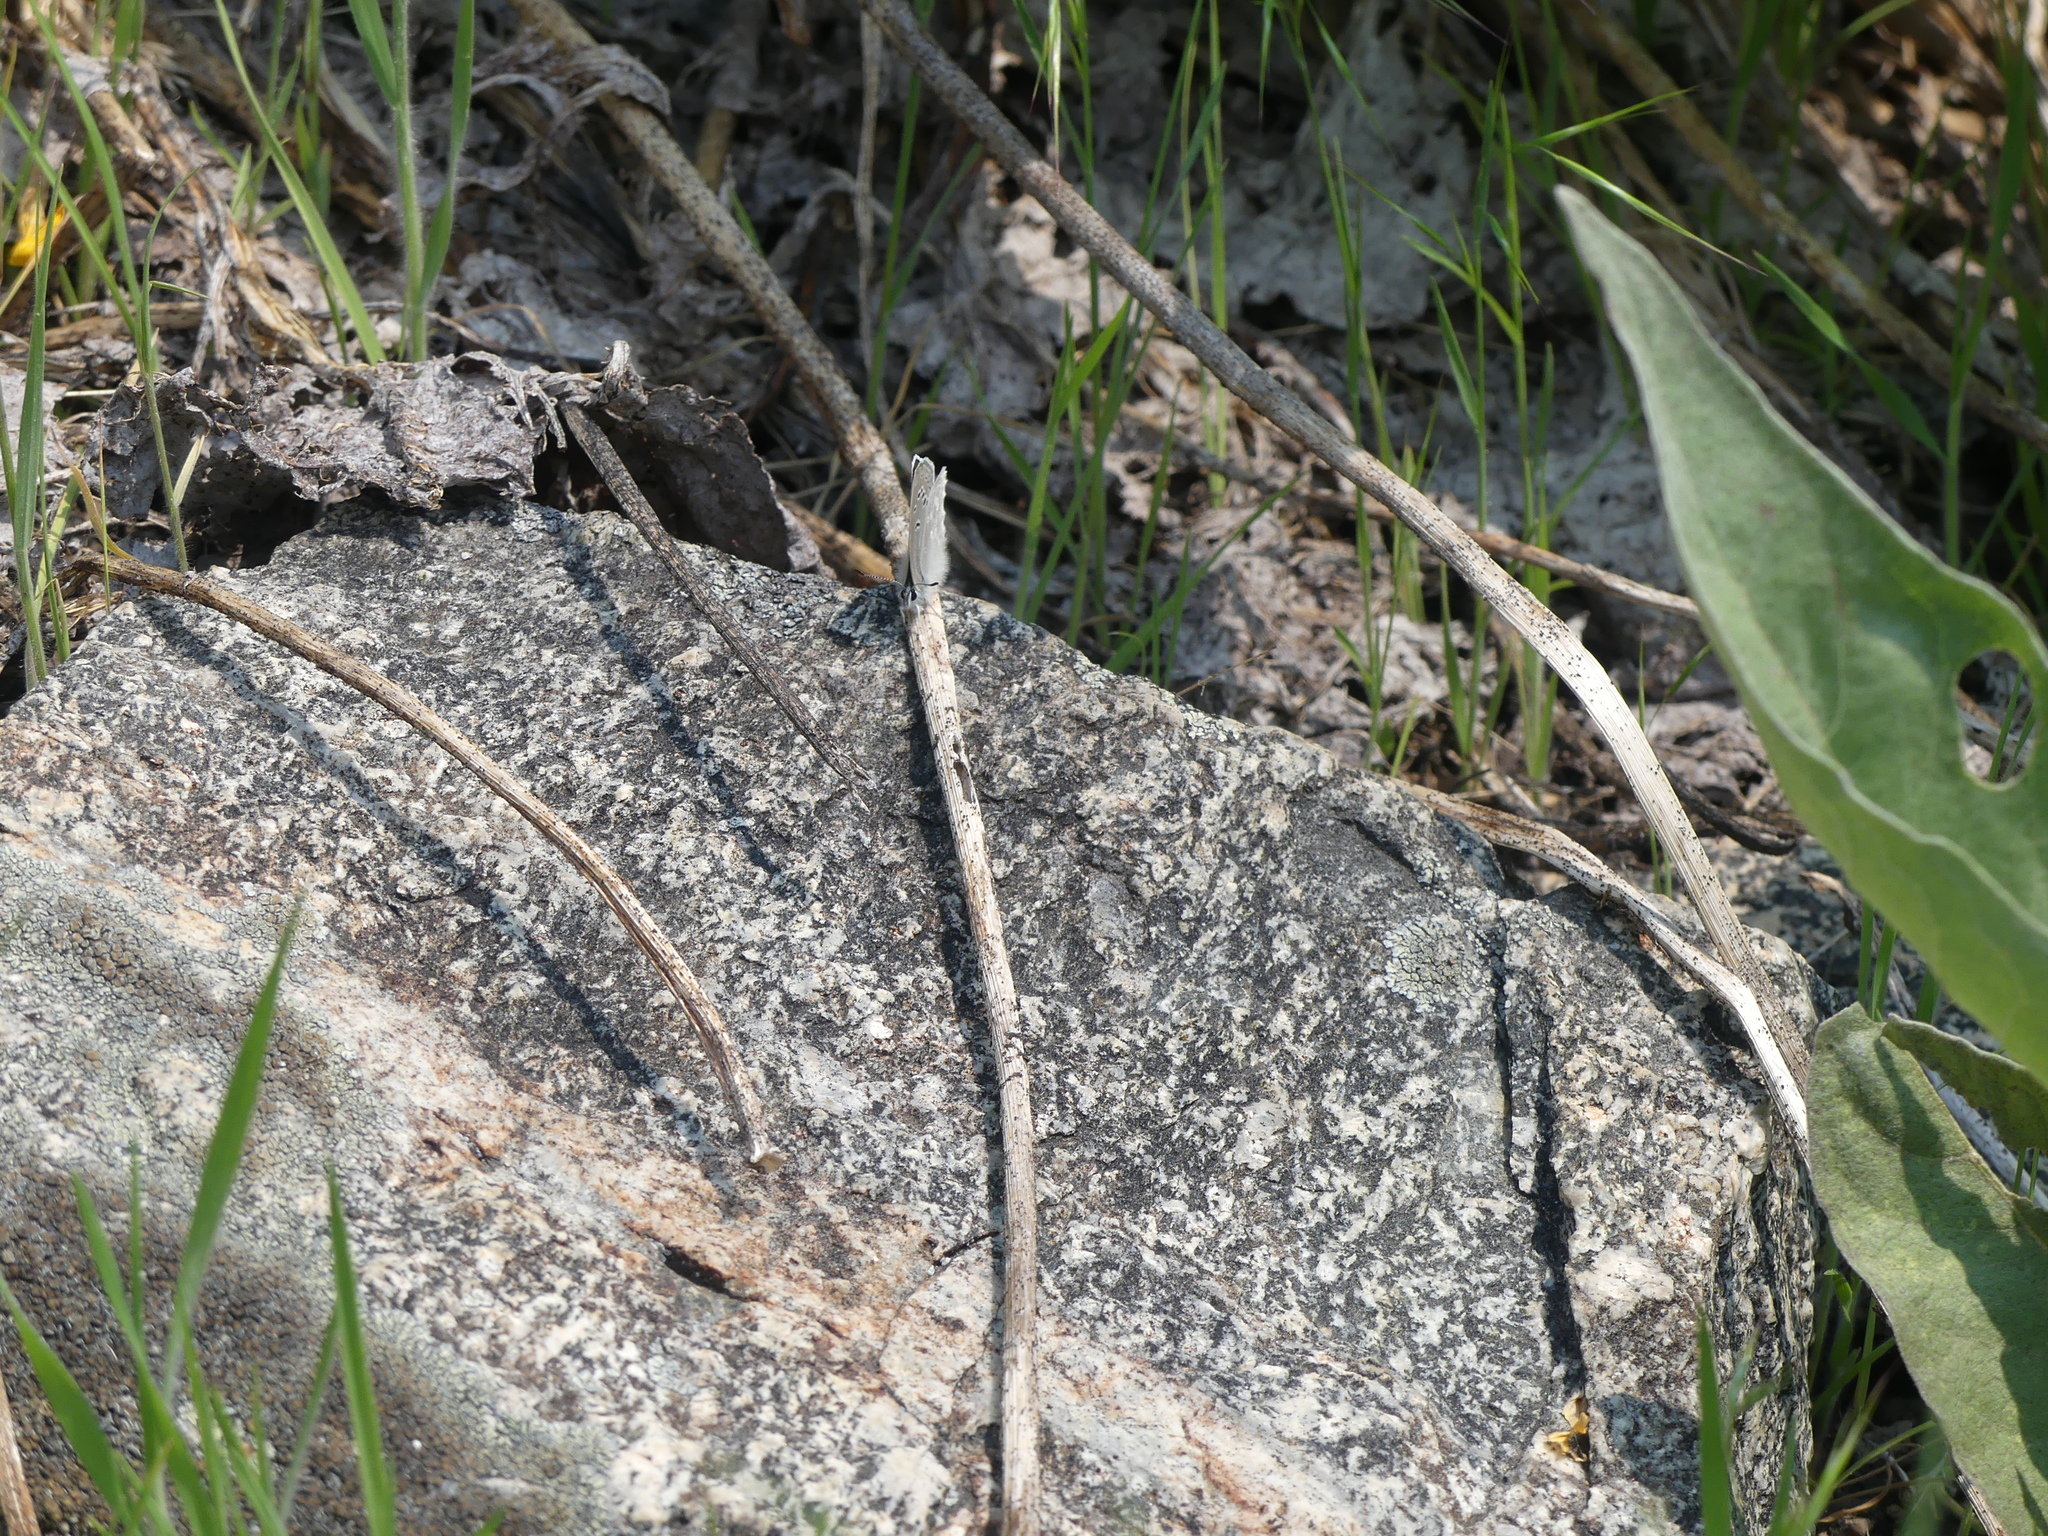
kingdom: Animalia
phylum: Arthropoda
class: Insecta
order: Lepidoptera
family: Lycaenidae
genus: Icaricia
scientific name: Icaricia icarioides
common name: Boisduval's blue
